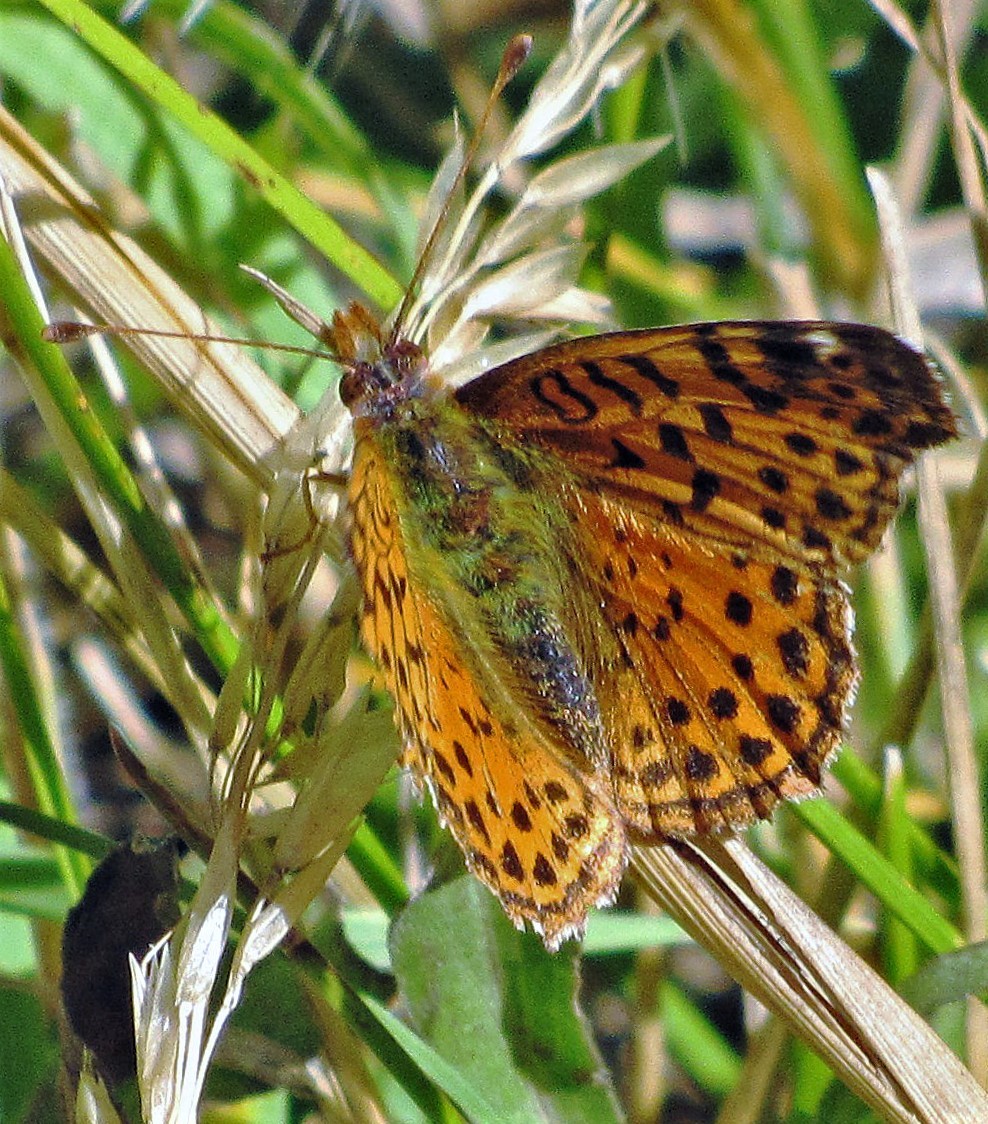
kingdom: Animalia
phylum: Arthropoda
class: Insecta
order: Lepidoptera
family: Nymphalidae
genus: Issoria
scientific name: Issoria Yramea cytheris
